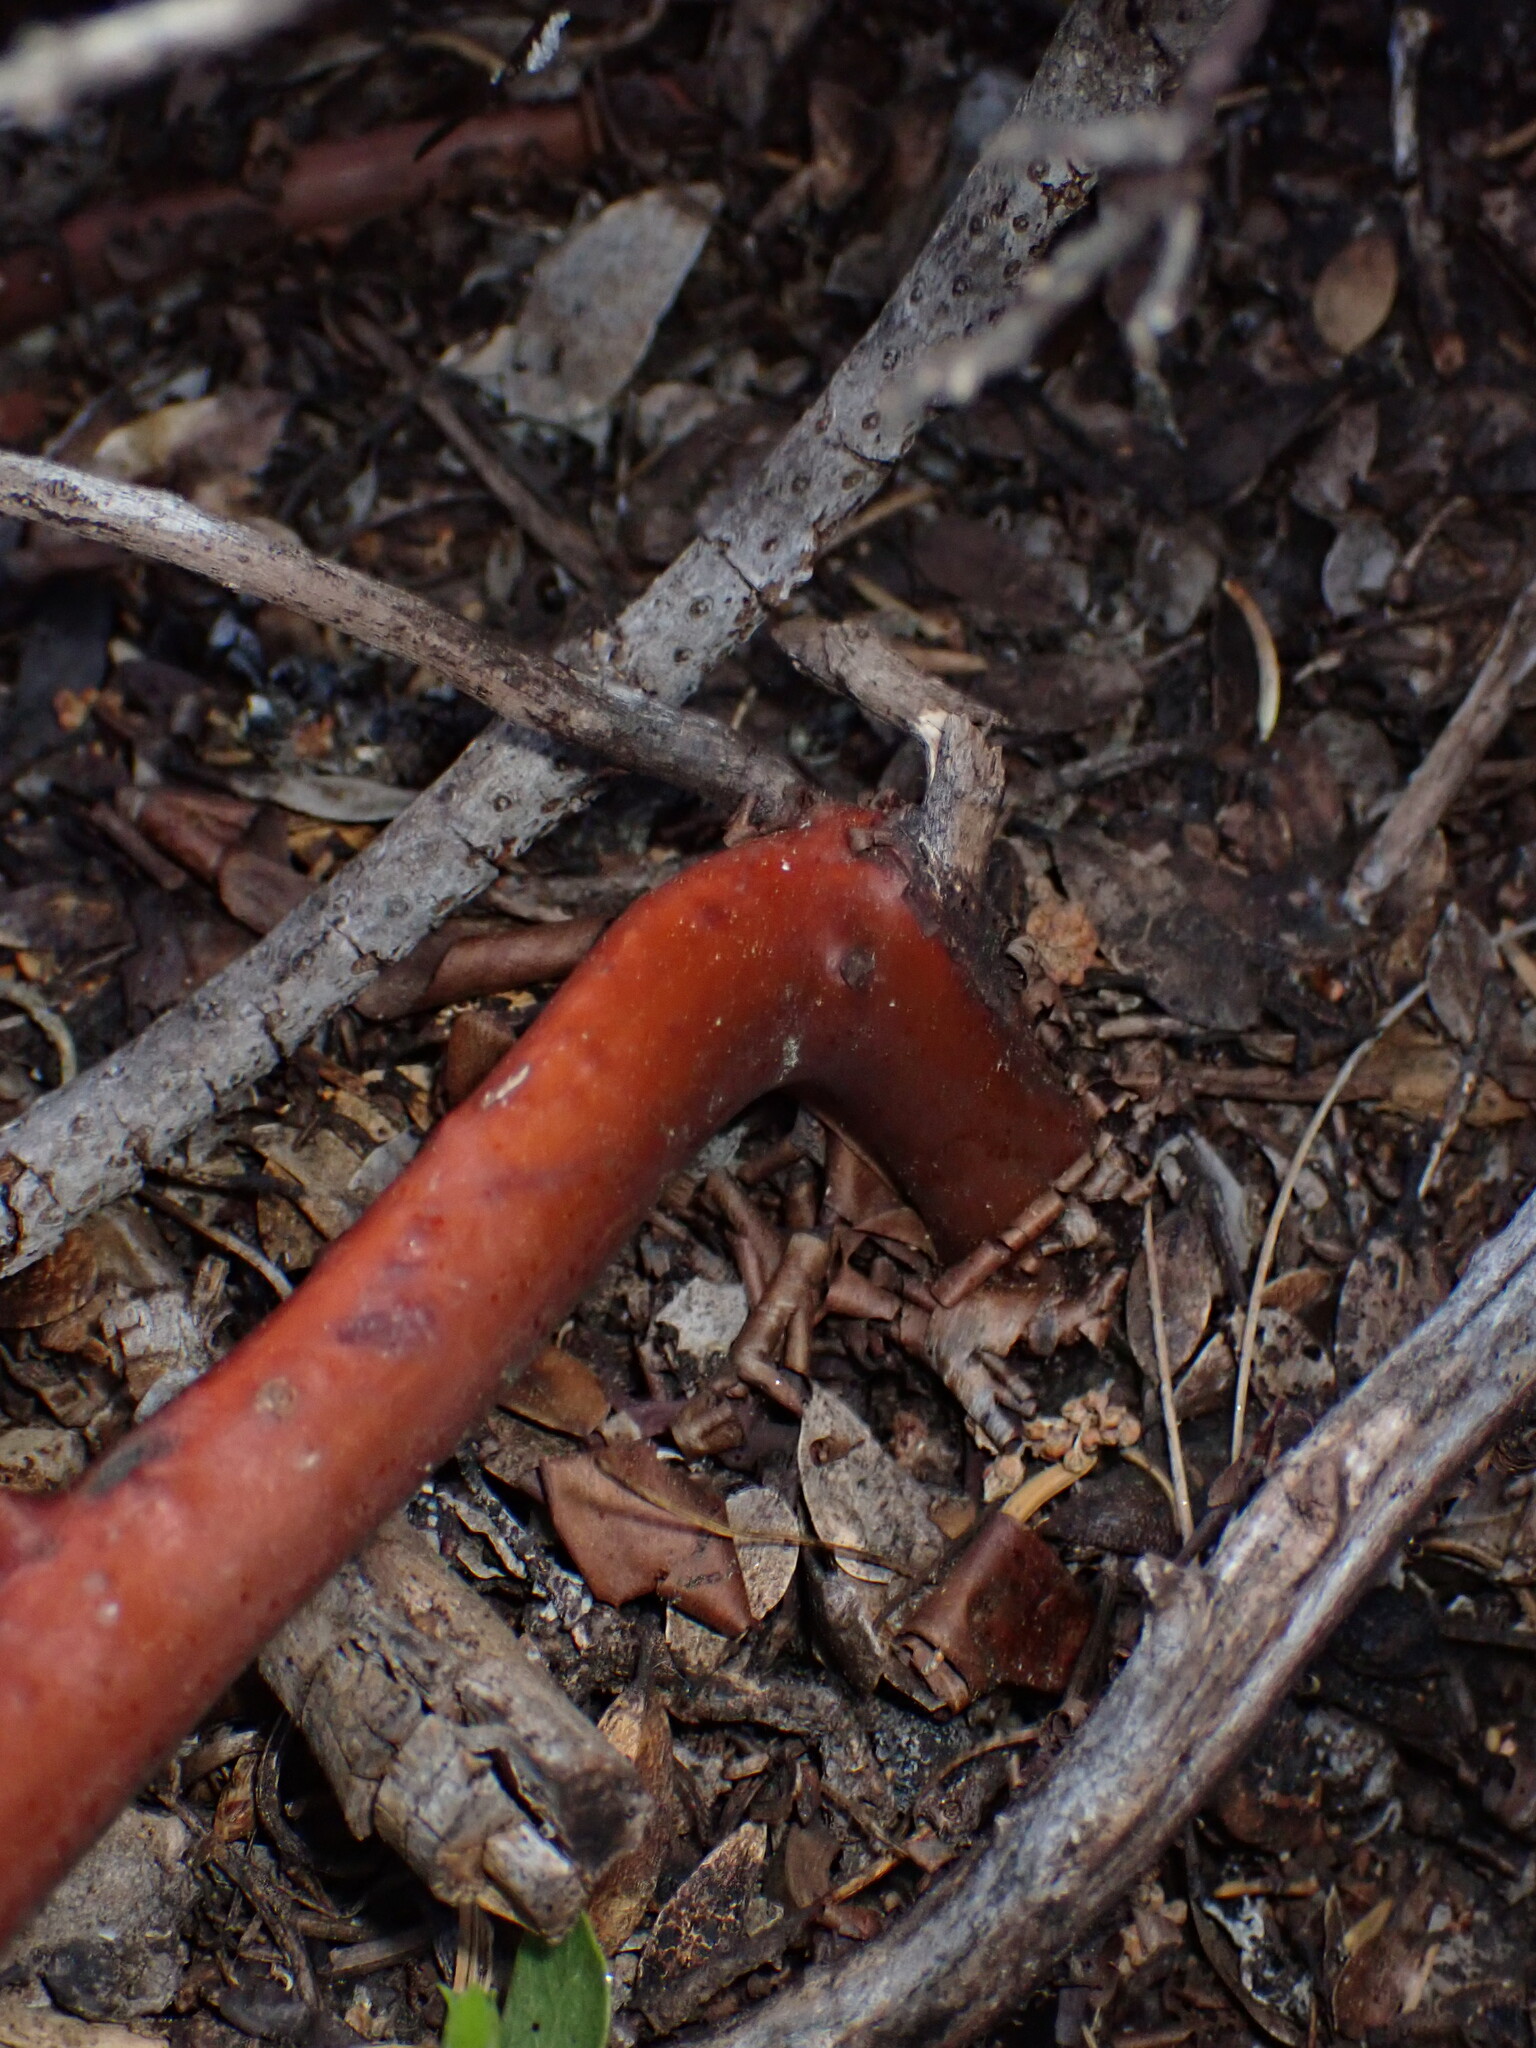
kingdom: Plantae
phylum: Tracheophyta
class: Magnoliopsida
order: Ericales
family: Ericaceae
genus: Arctostaphylos
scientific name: Arctostaphylos nevadensis
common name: Pinemat manzanita
